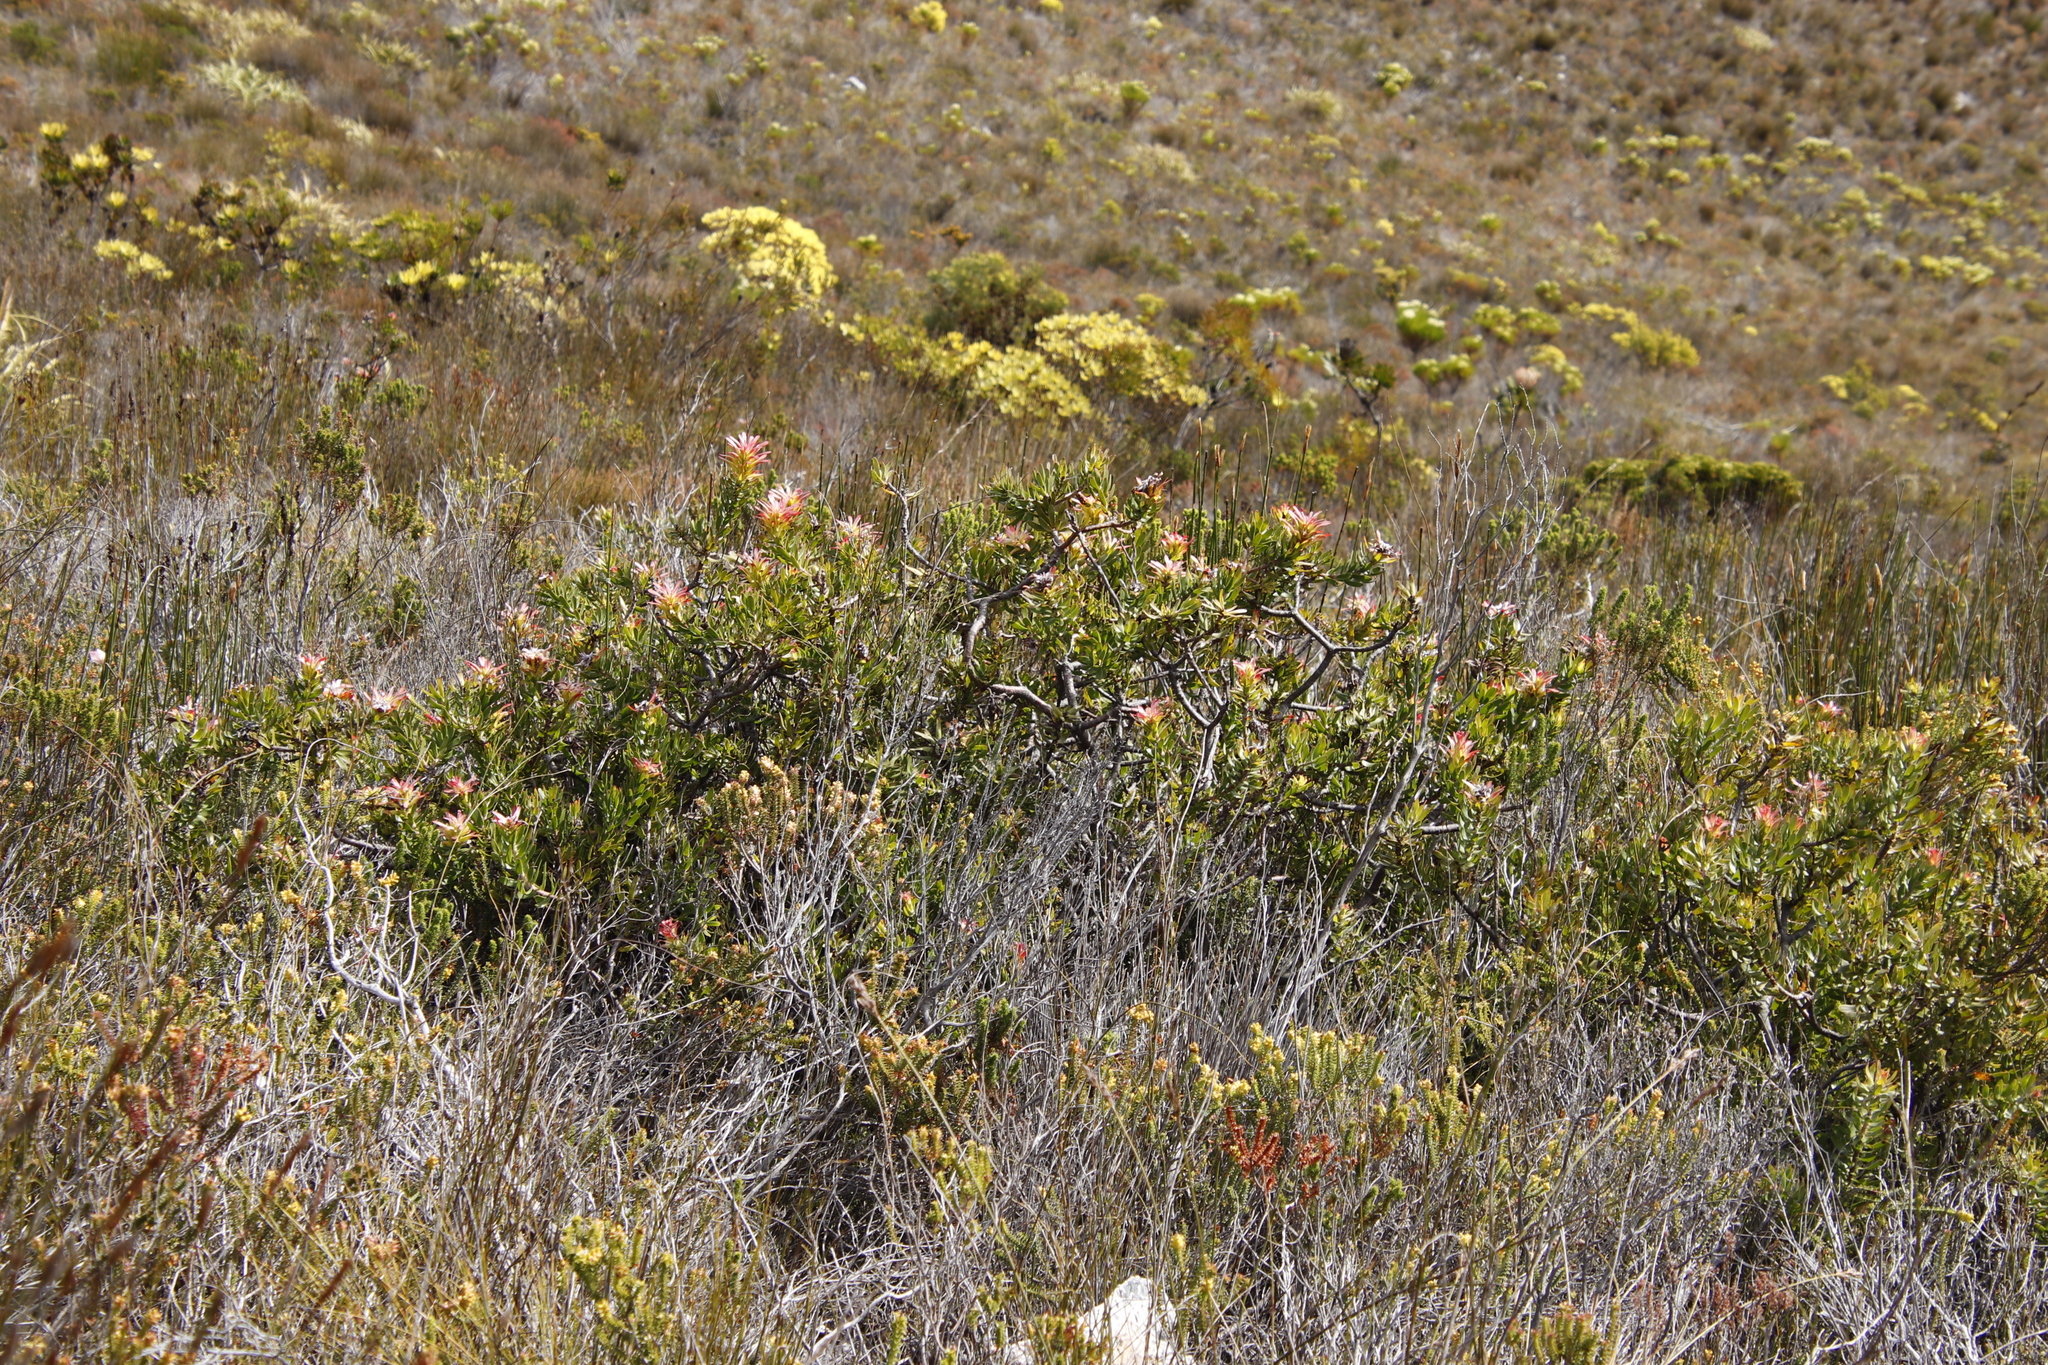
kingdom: Plantae
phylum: Tracheophyta
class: Magnoliopsida
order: Proteales
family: Proteaceae
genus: Mimetes
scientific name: Mimetes cucullatus
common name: Common pagoda
